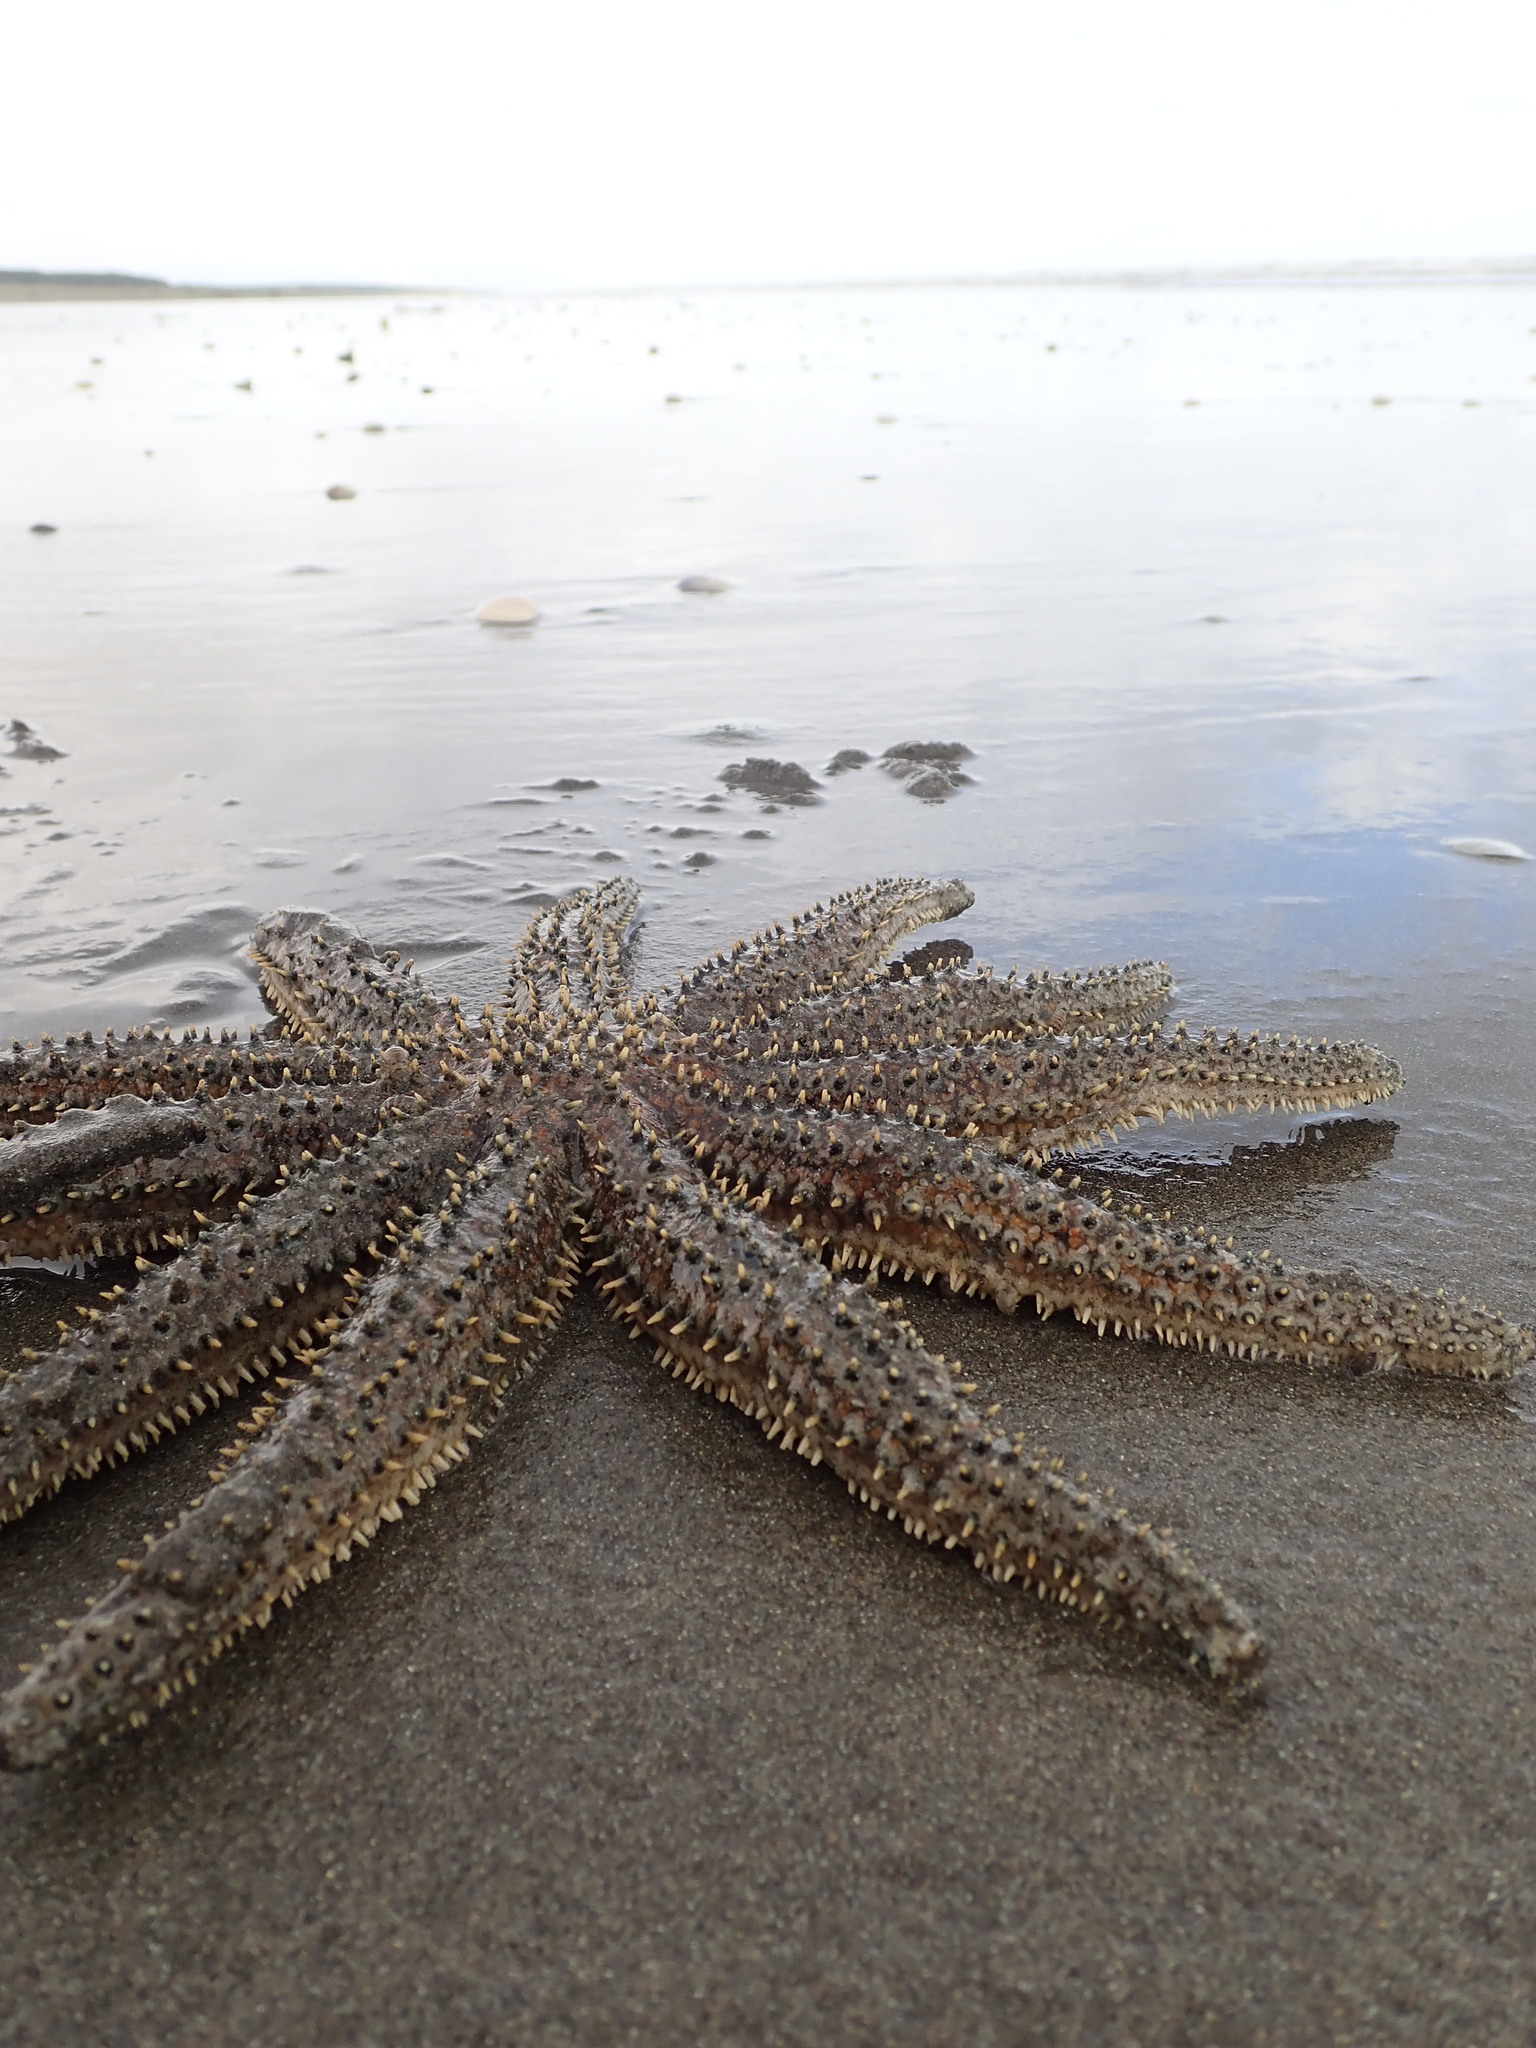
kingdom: Animalia
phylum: Echinodermata
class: Asteroidea
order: Forcipulatida
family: Asteriidae
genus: Coscinasterias
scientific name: Coscinasterias muricata
